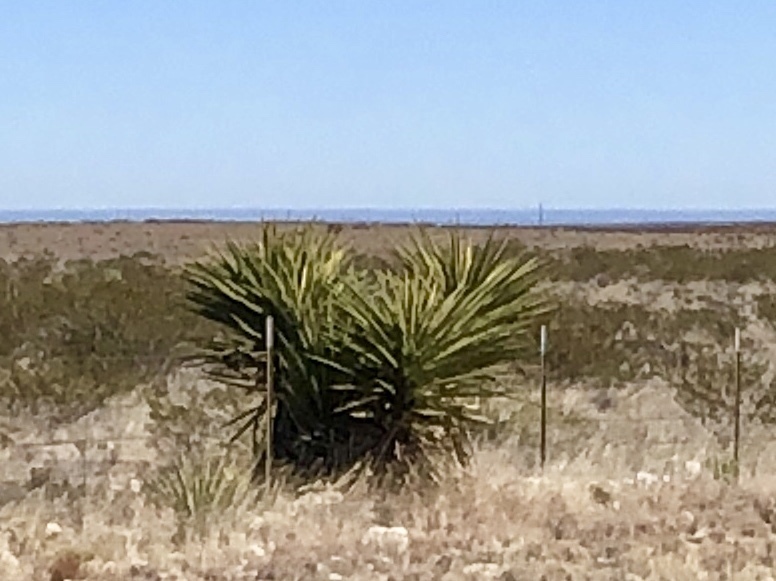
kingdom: Plantae
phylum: Tracheophyta
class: Liliopsida
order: Asparagales
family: Asparagaceae
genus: Yucca
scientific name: Yucca treculiana
